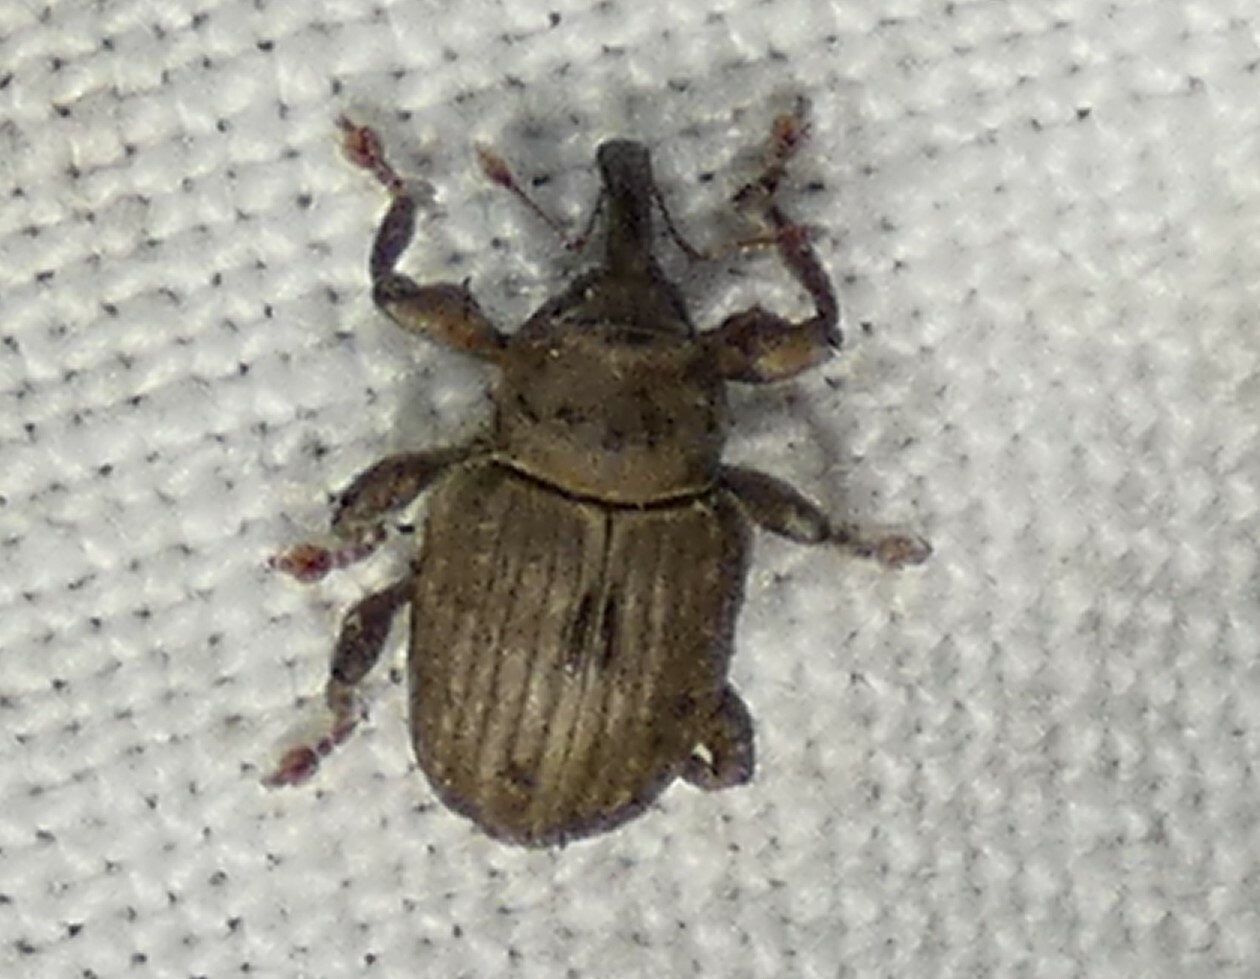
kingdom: Animalia
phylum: Arthropoda
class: Insecta
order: Coleoptera
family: Brachyceridae
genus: Neochetina
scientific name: Neochetina eichhorniae
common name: Weevil
